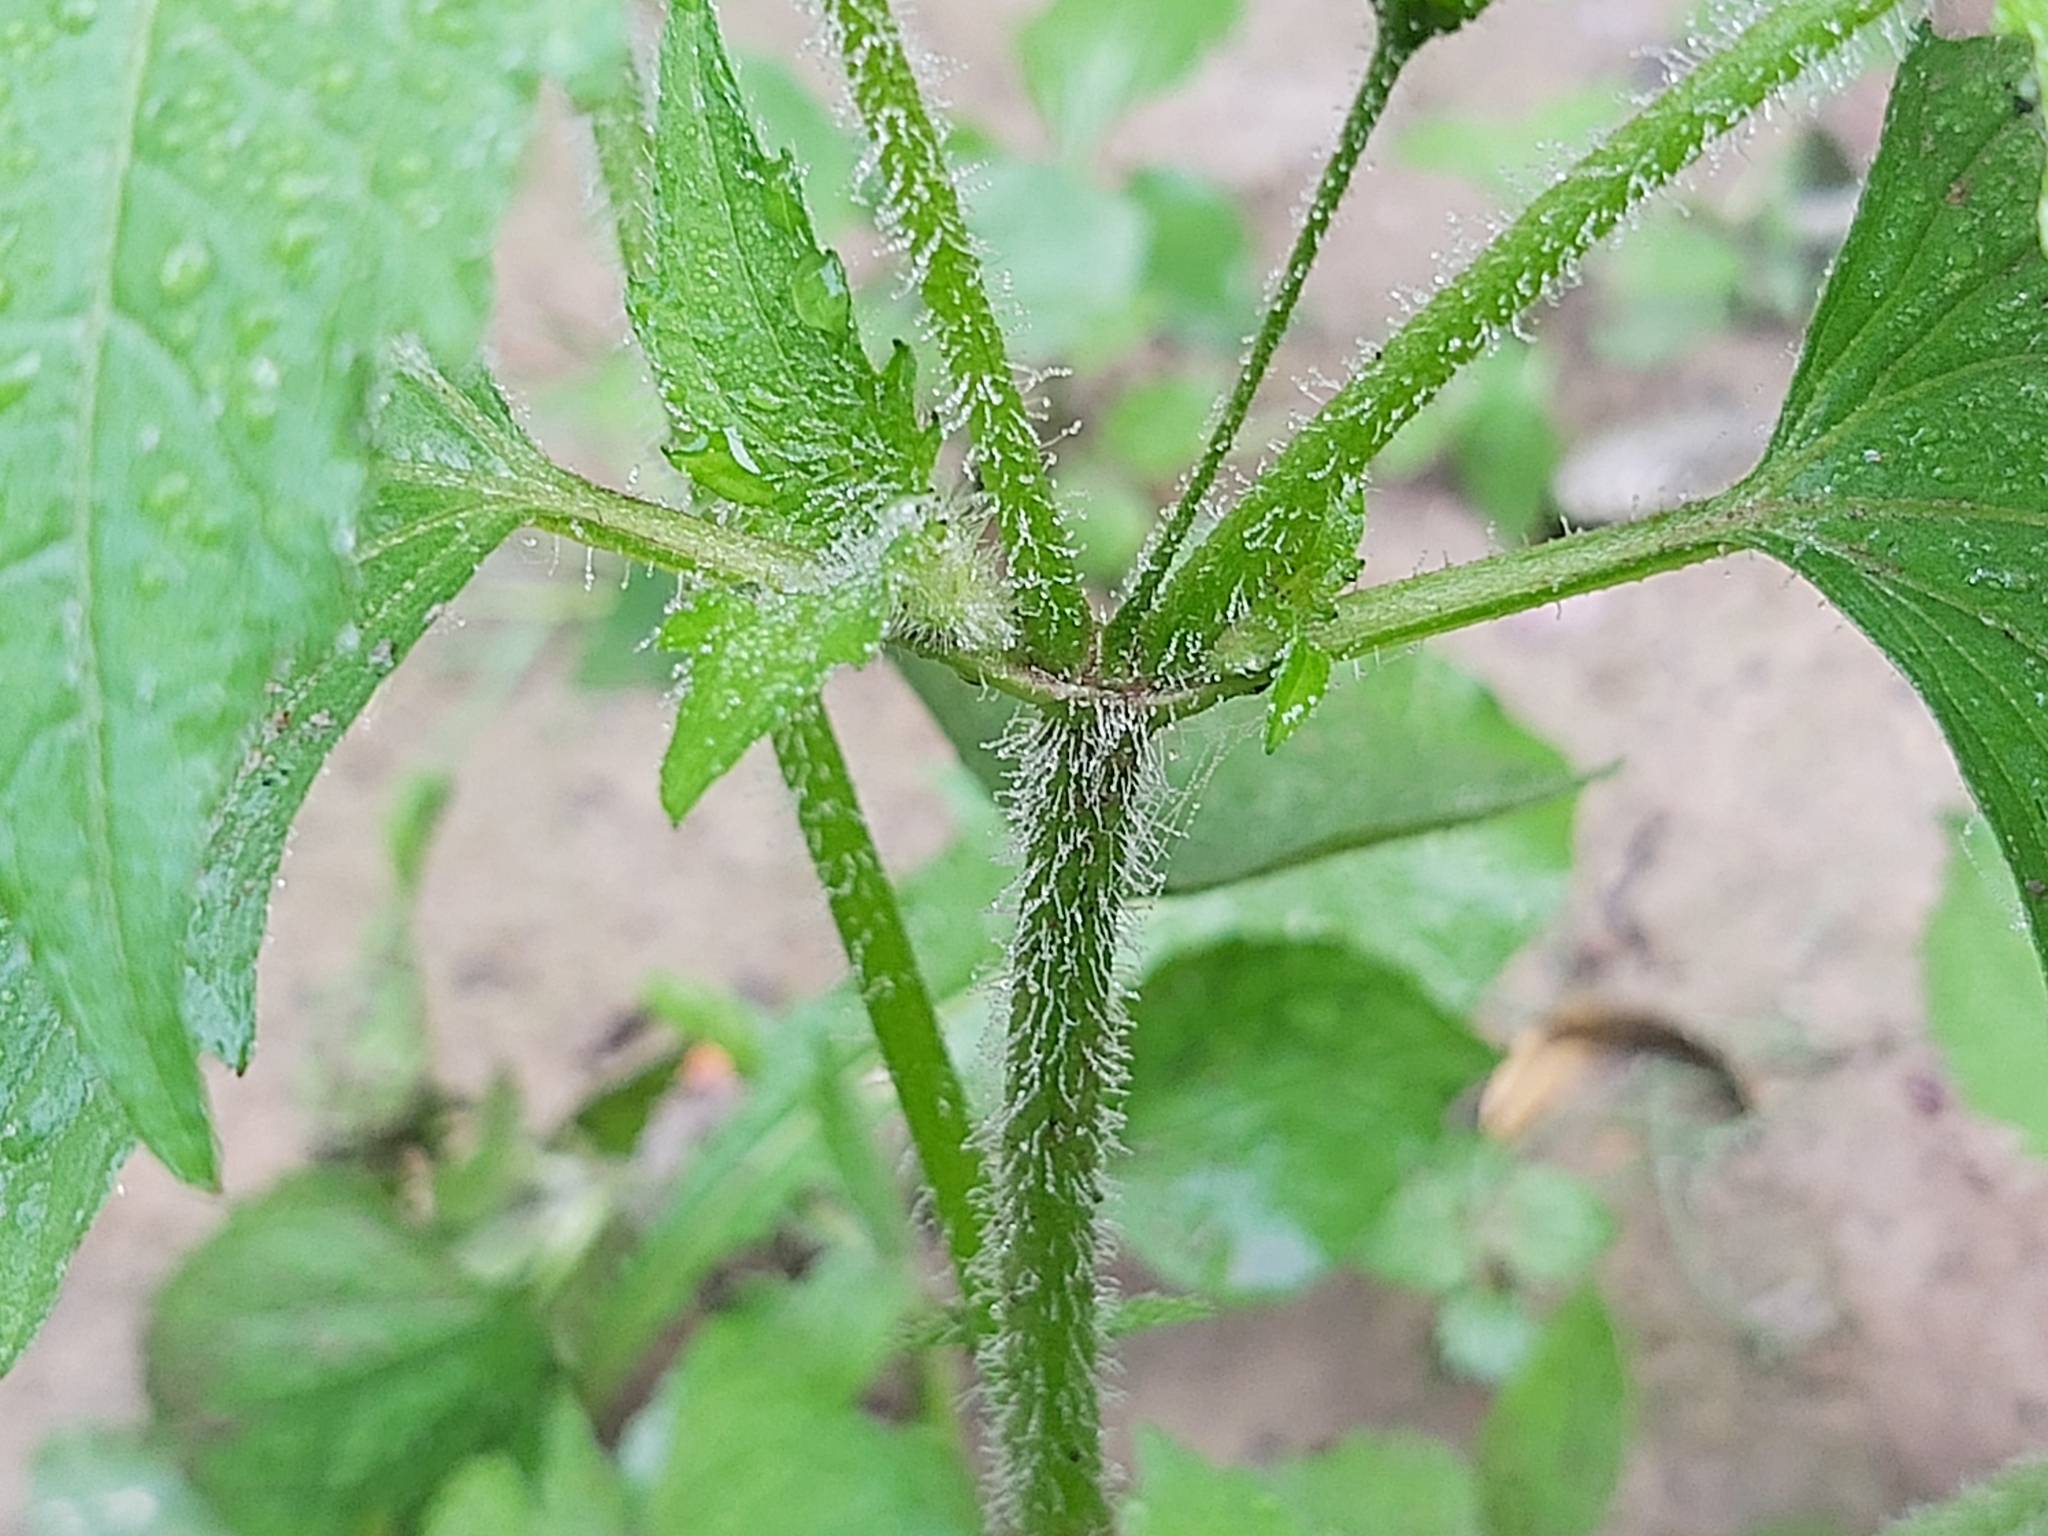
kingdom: Plantae
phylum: Tracheophyta
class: Magnoliopsida
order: Asterales
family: Asteraceae
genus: Galinsoga
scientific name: Galinsoga quadriradiata
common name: Shaggy soldier
